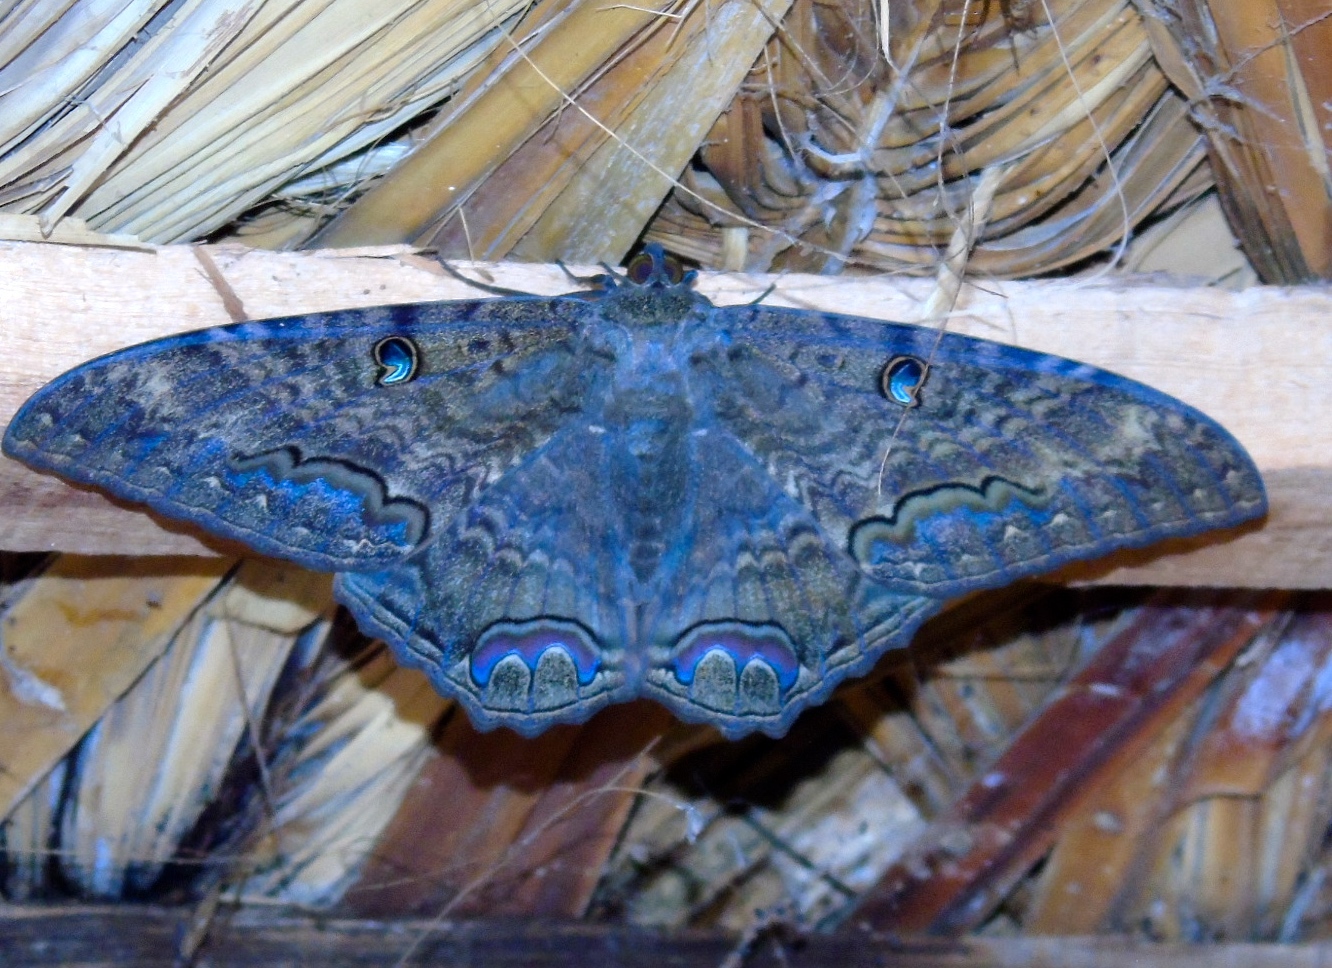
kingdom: Animalia
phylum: Arthropoda
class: Insecta
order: Lepidoptera
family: Erebidae
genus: Ascalapha
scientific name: Ascalapha odorata
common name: Black witch
